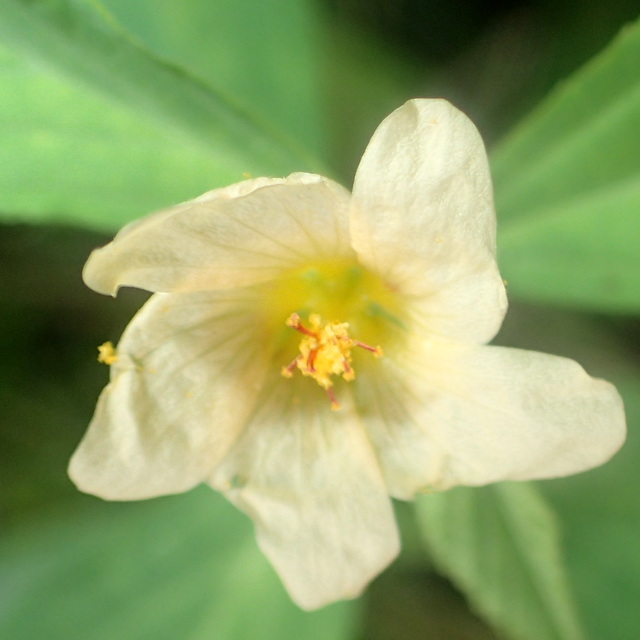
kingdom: Plantae
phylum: Tracheophyta
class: Magnoliopsida
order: Malvales
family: Malvaceae
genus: Sida
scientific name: Sida rhombifolia
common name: Queensland-hemp
